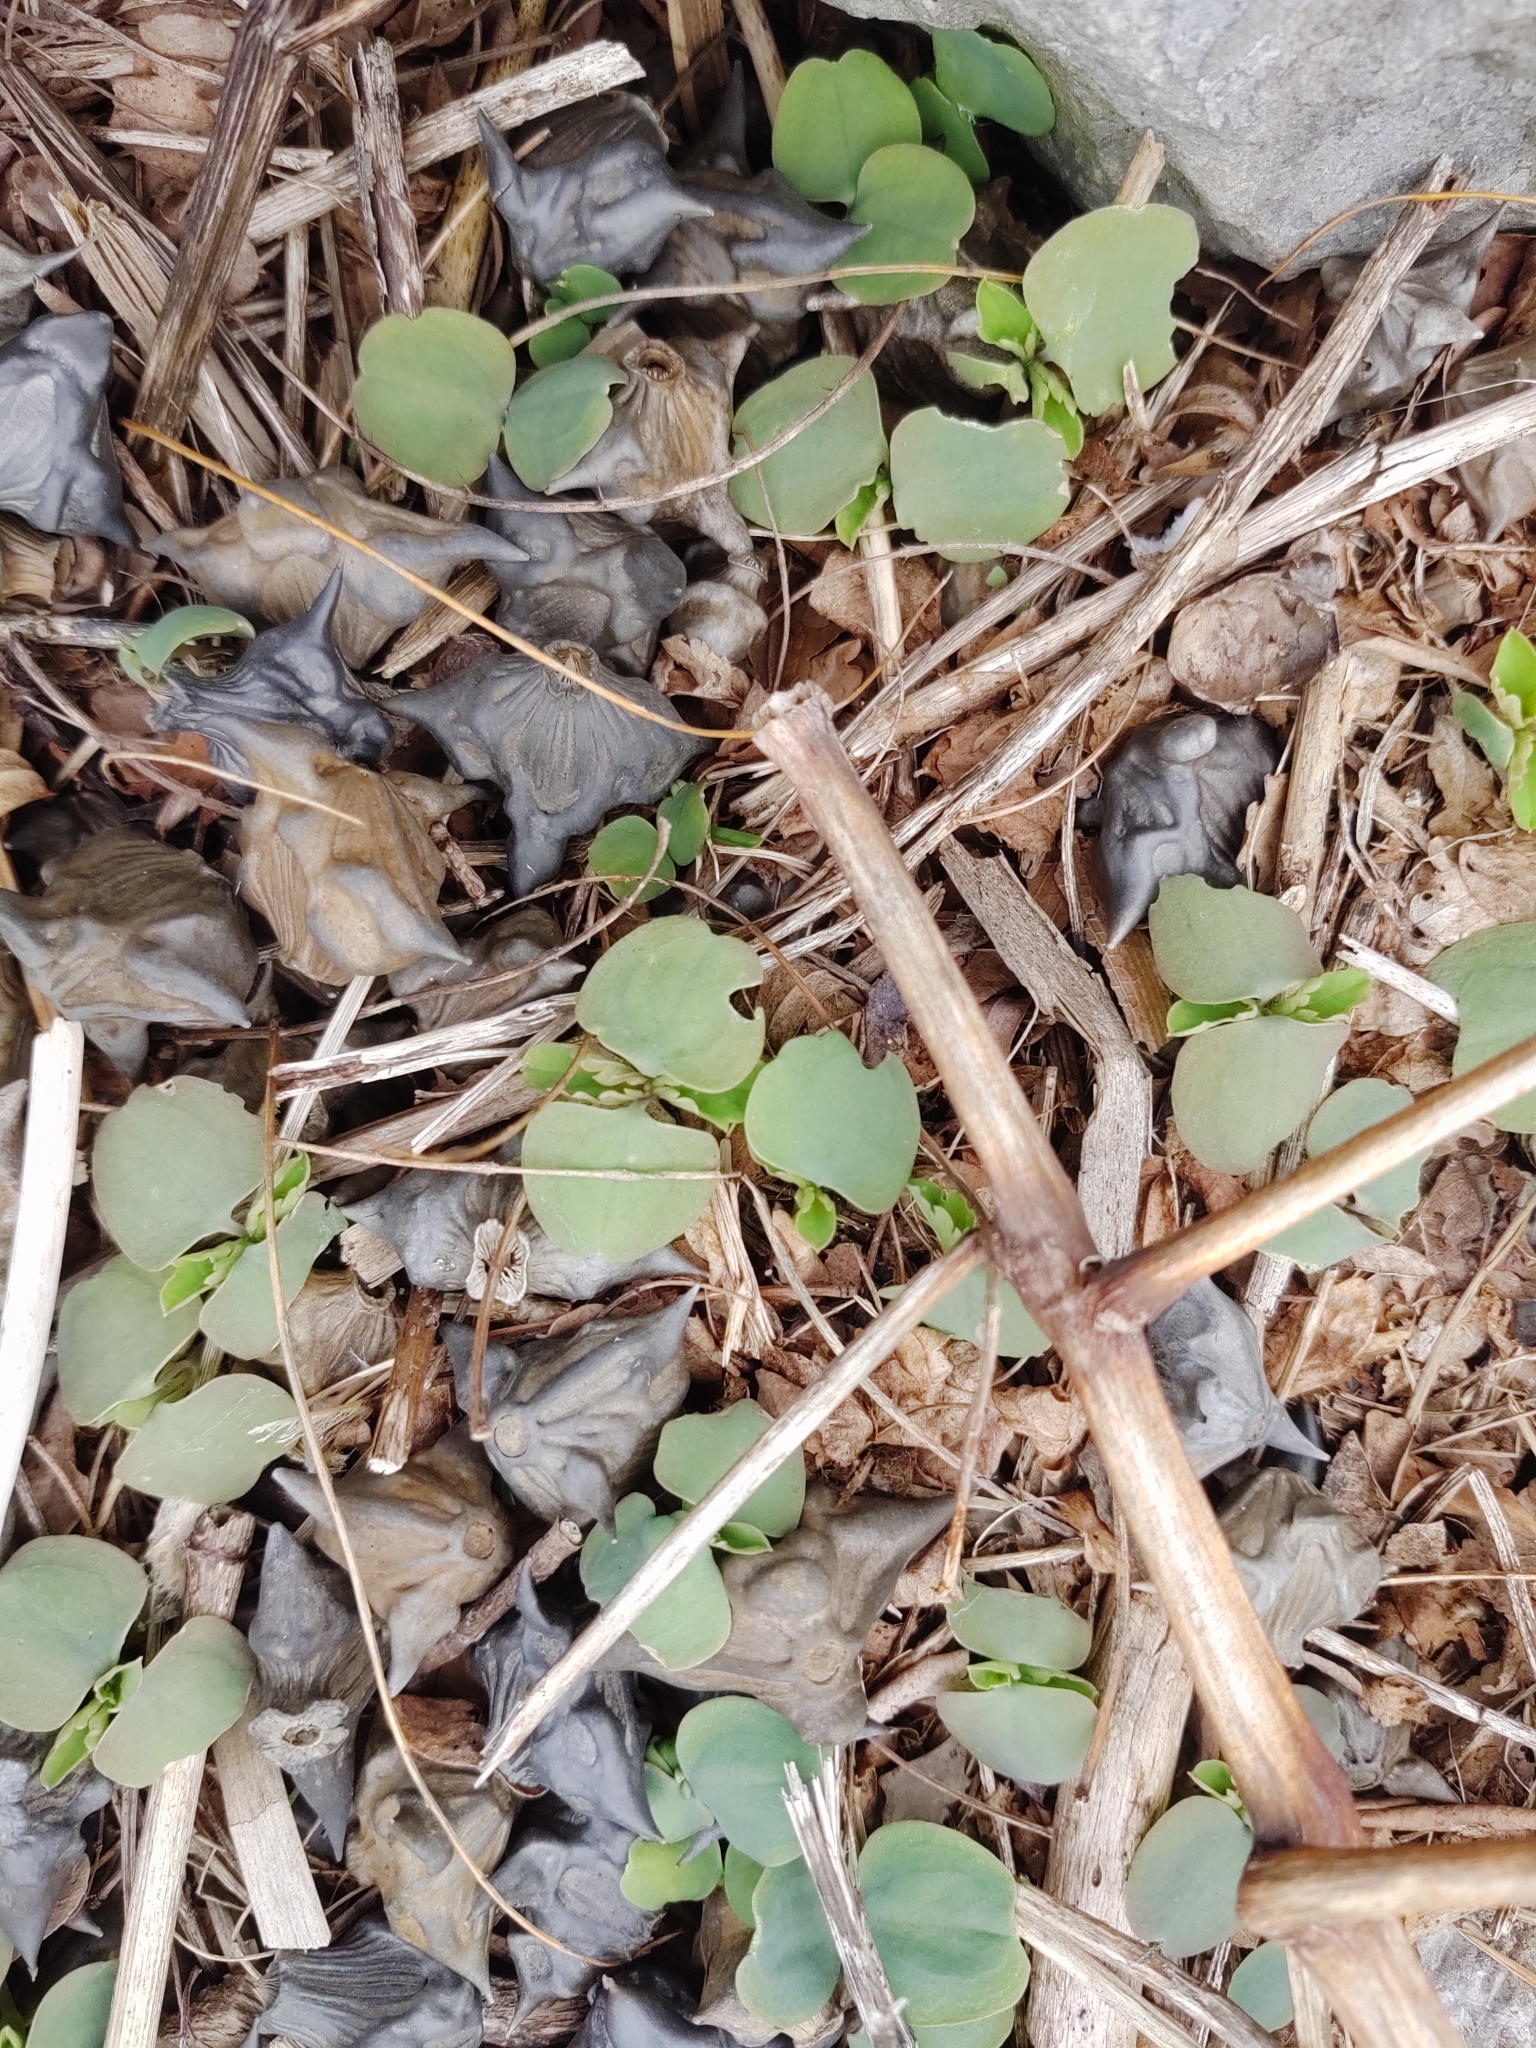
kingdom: Plantae
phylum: Tracheophyta
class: Magnoliopsida
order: Myrtales
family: Lythraceae
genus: Trapa
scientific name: Trapa natans
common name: Water chestnut
